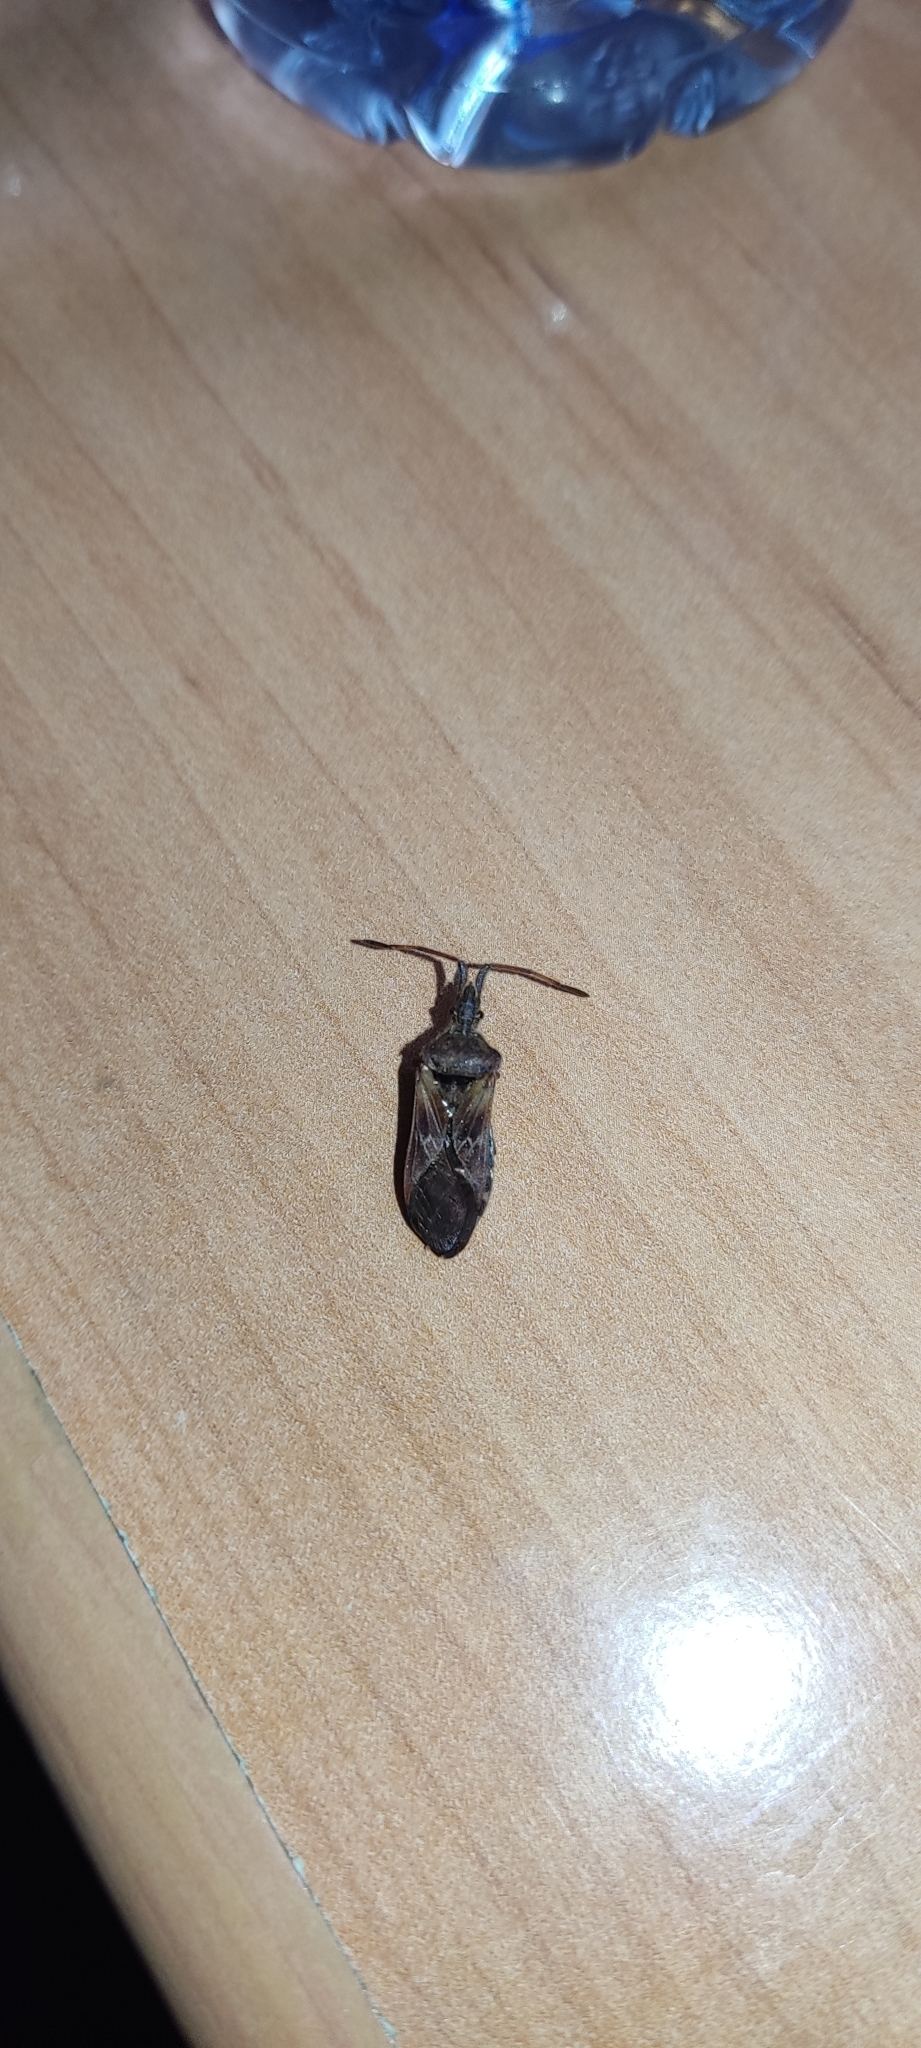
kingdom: Animalia
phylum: Arthropoda
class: Insecta
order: Hemiptera
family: Coreidae
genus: Leptoglossus
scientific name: Leptoglossus occidentalis
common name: Western conifer-seed bug
